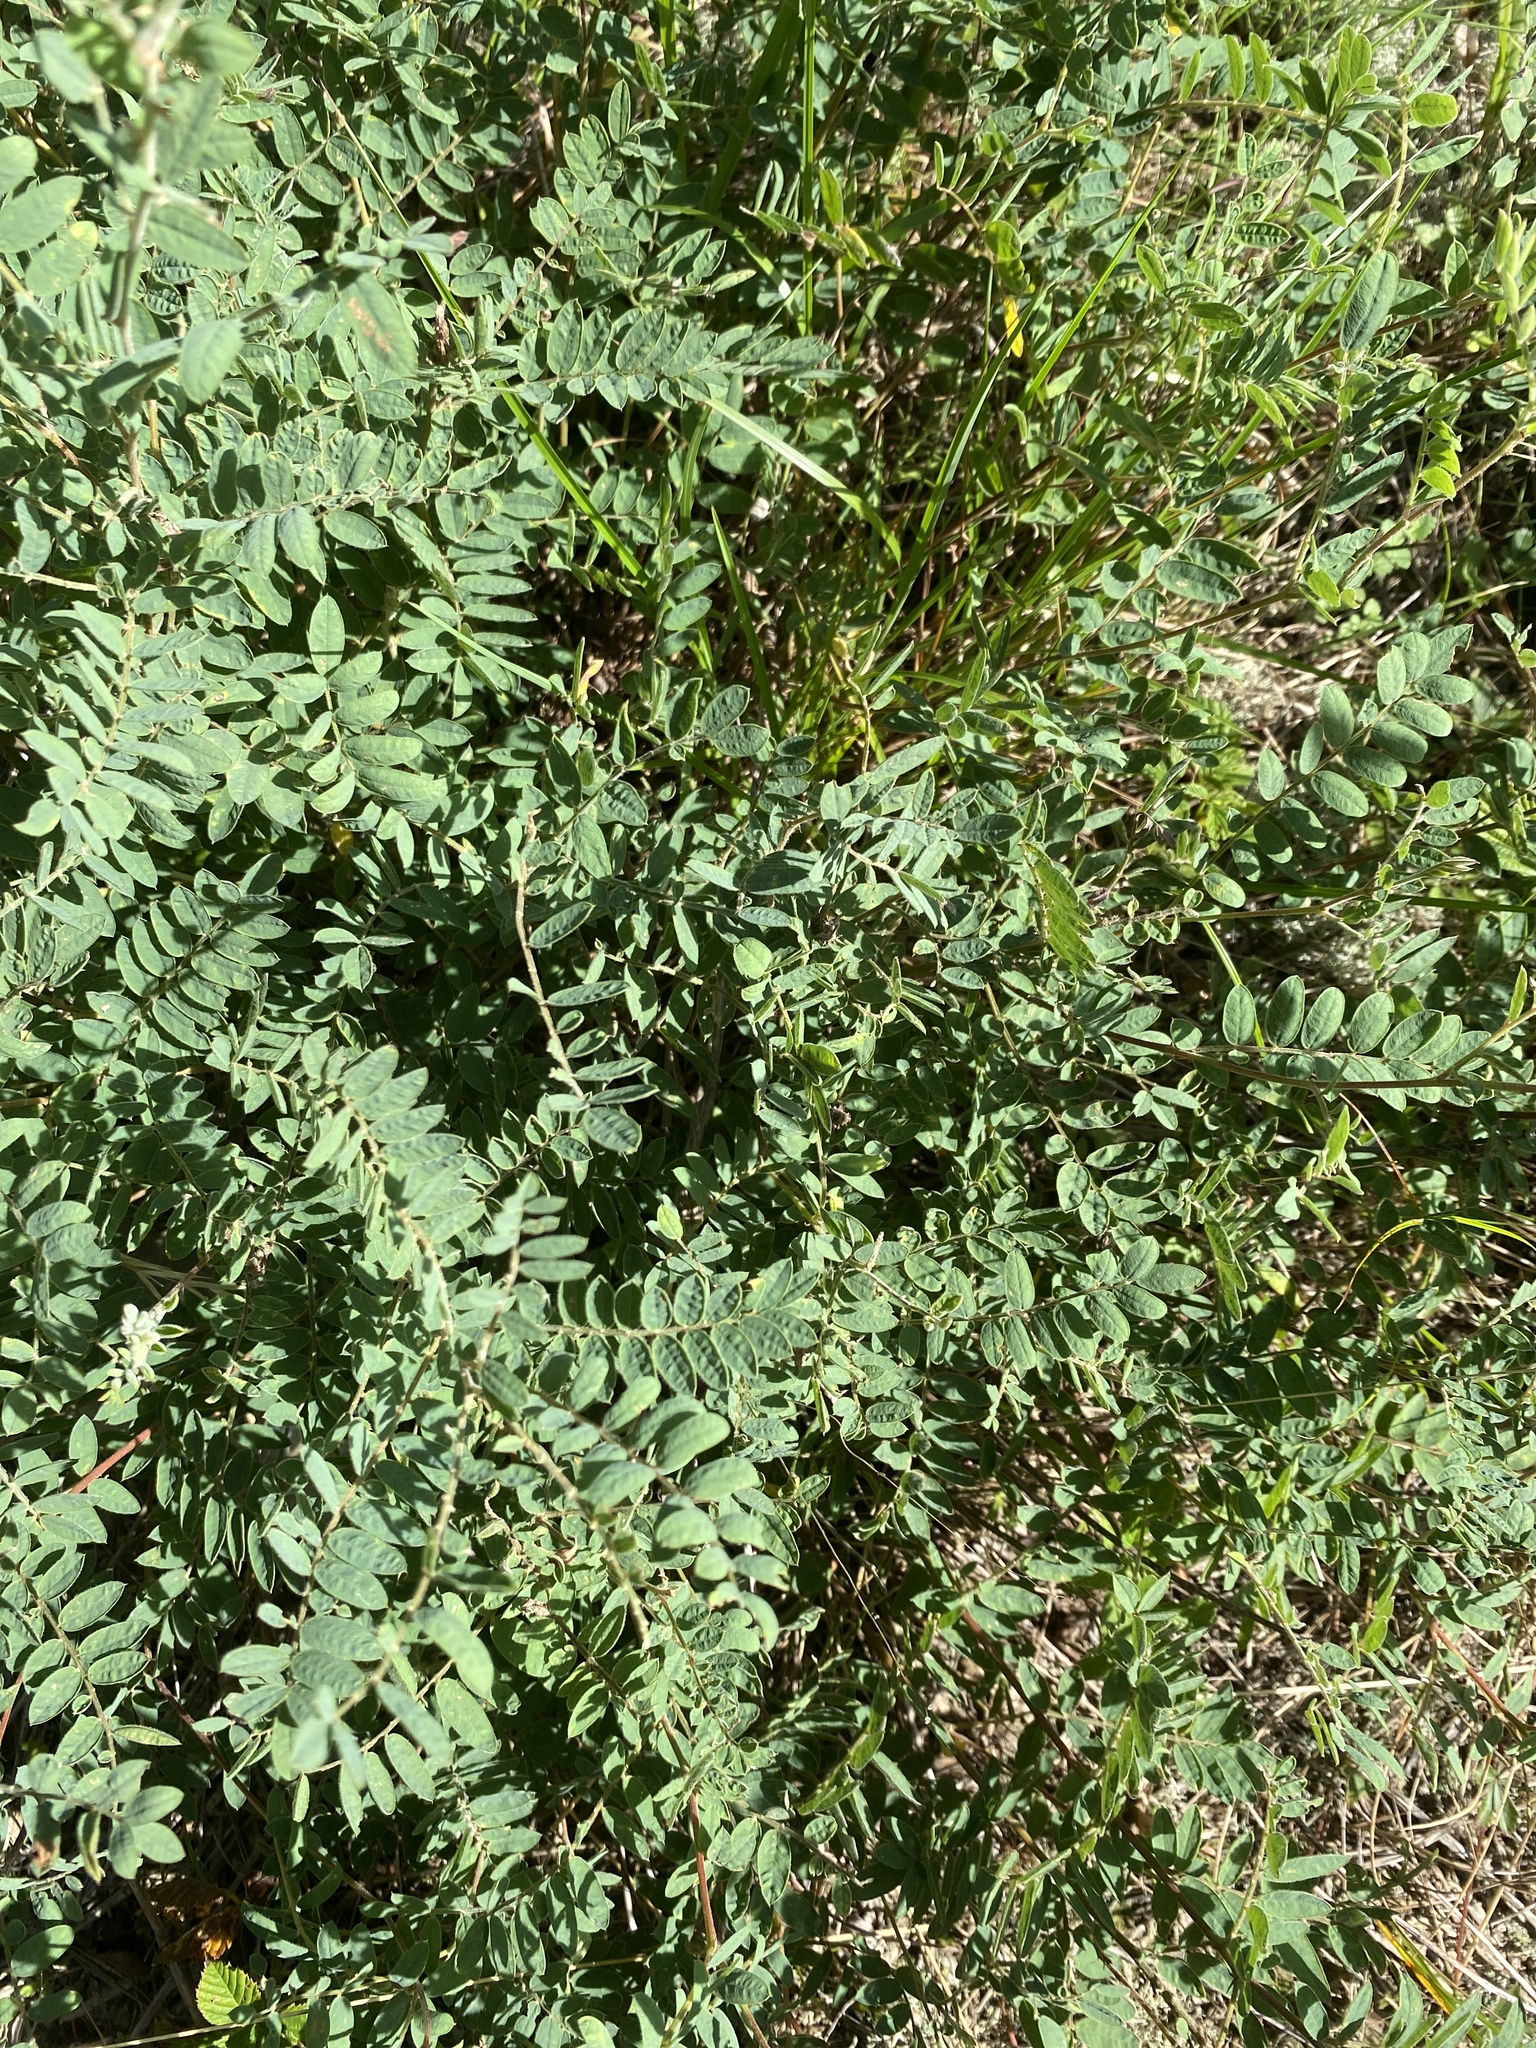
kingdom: Plantae
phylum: Tracheophyta
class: Magnoliopsida
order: Fabales
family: Fabaceae
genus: Tephrosia
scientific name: Tephrosia virginiana
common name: Rabbit-pea
